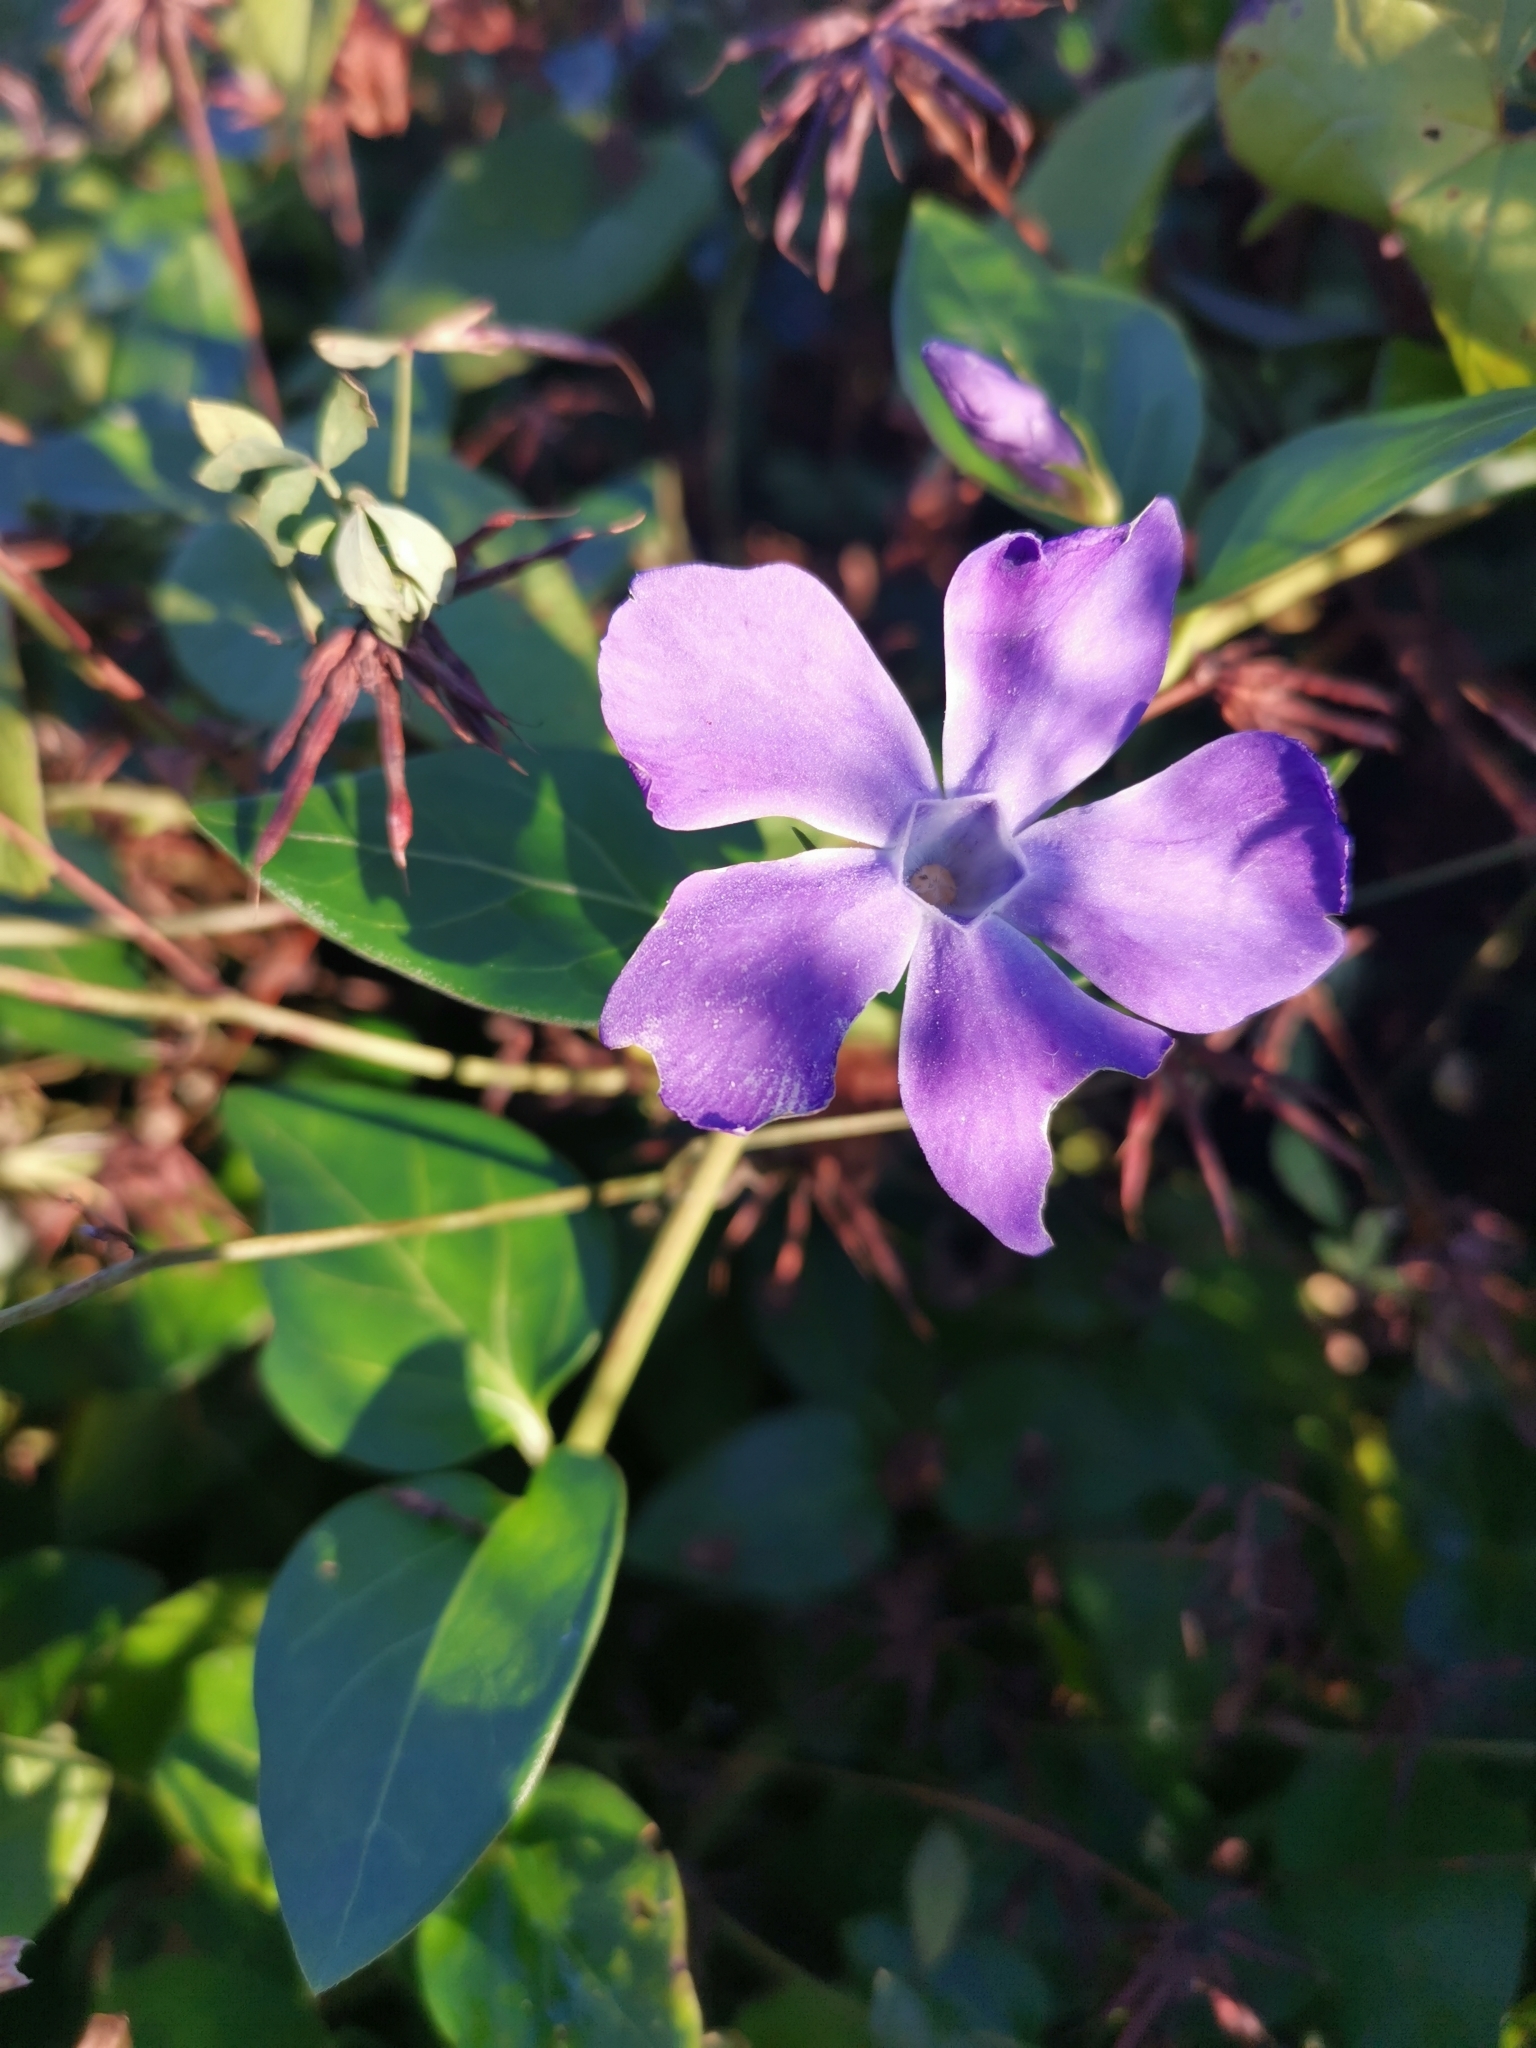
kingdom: Plantae
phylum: Tracheophyta
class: Magnoliopsida
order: Gentianales
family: Apocynaceae
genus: Vinca
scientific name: Vinca major
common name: Greater periwinkle
